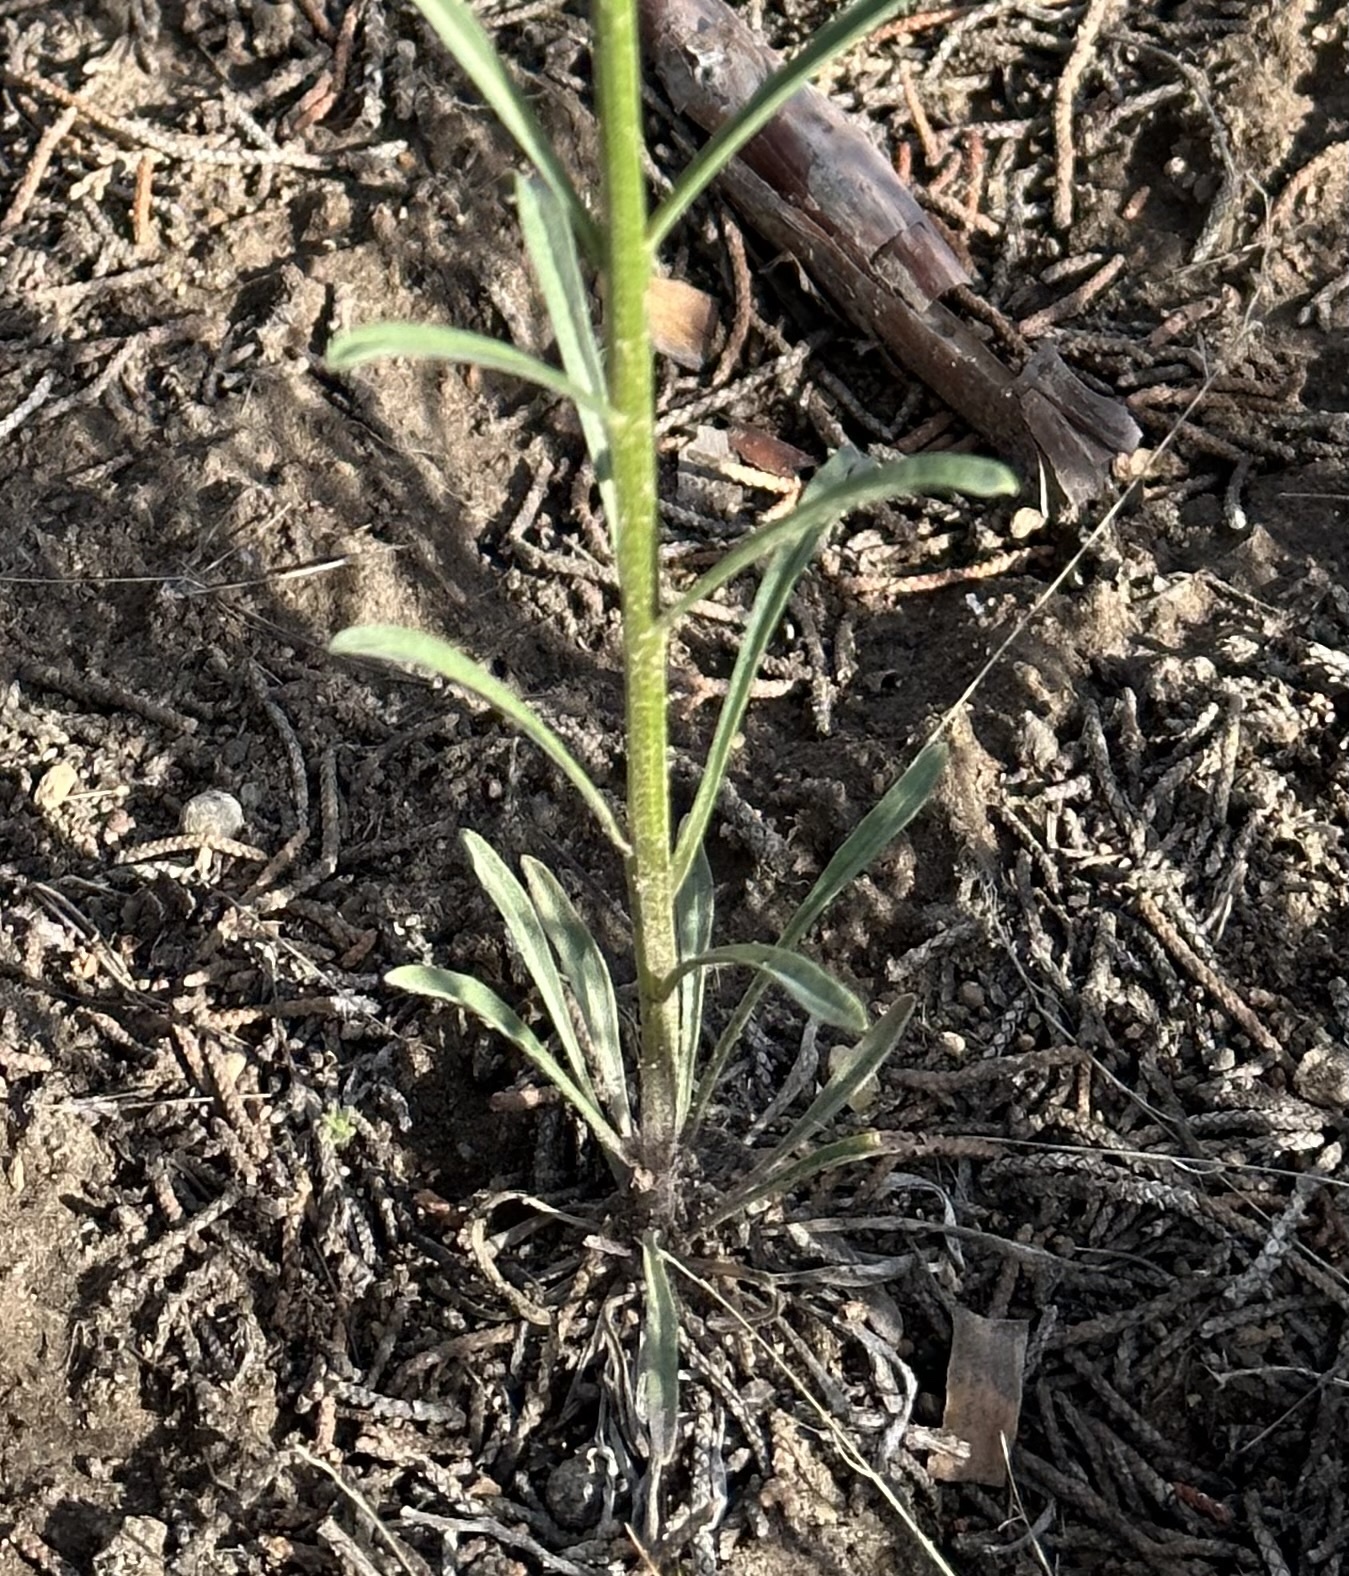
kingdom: Plantae
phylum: Tracheophyta
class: Magnoliopsida
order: Brassicales
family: Brassicaceae
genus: Erysimum
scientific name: Erysimum capitatum
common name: Western wallflower
